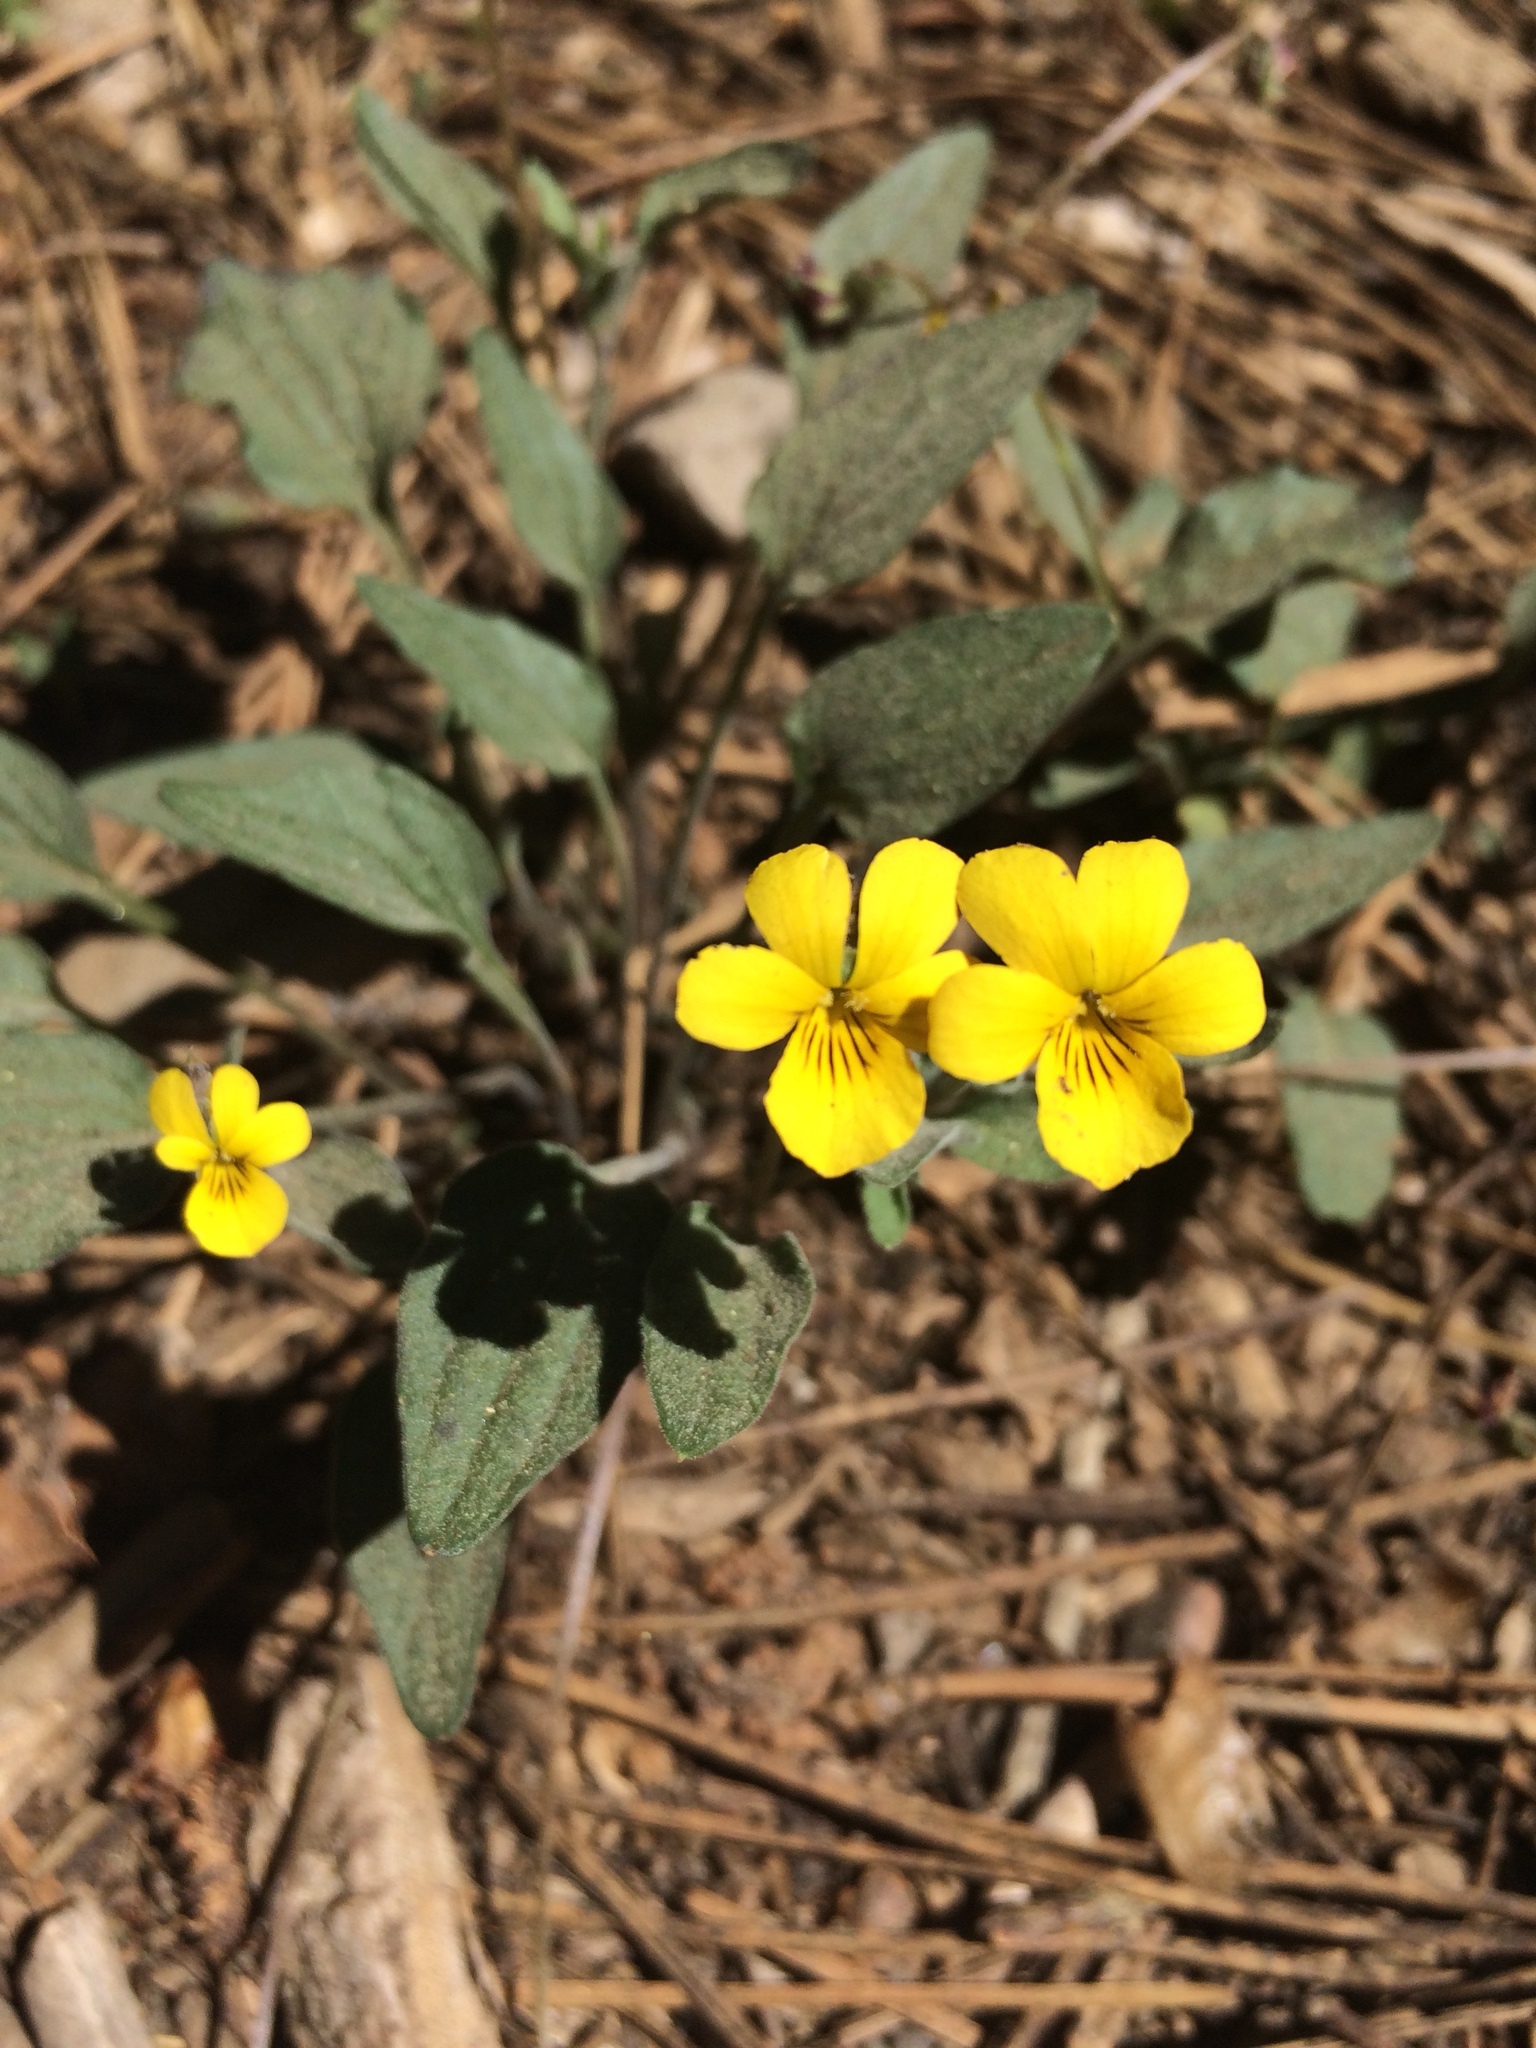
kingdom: Plantae
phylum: Tracheophyta
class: Magnoliopsida
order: Malpighiales
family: Violaceae
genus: Viola
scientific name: Viola purpurea
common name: Pine violet
